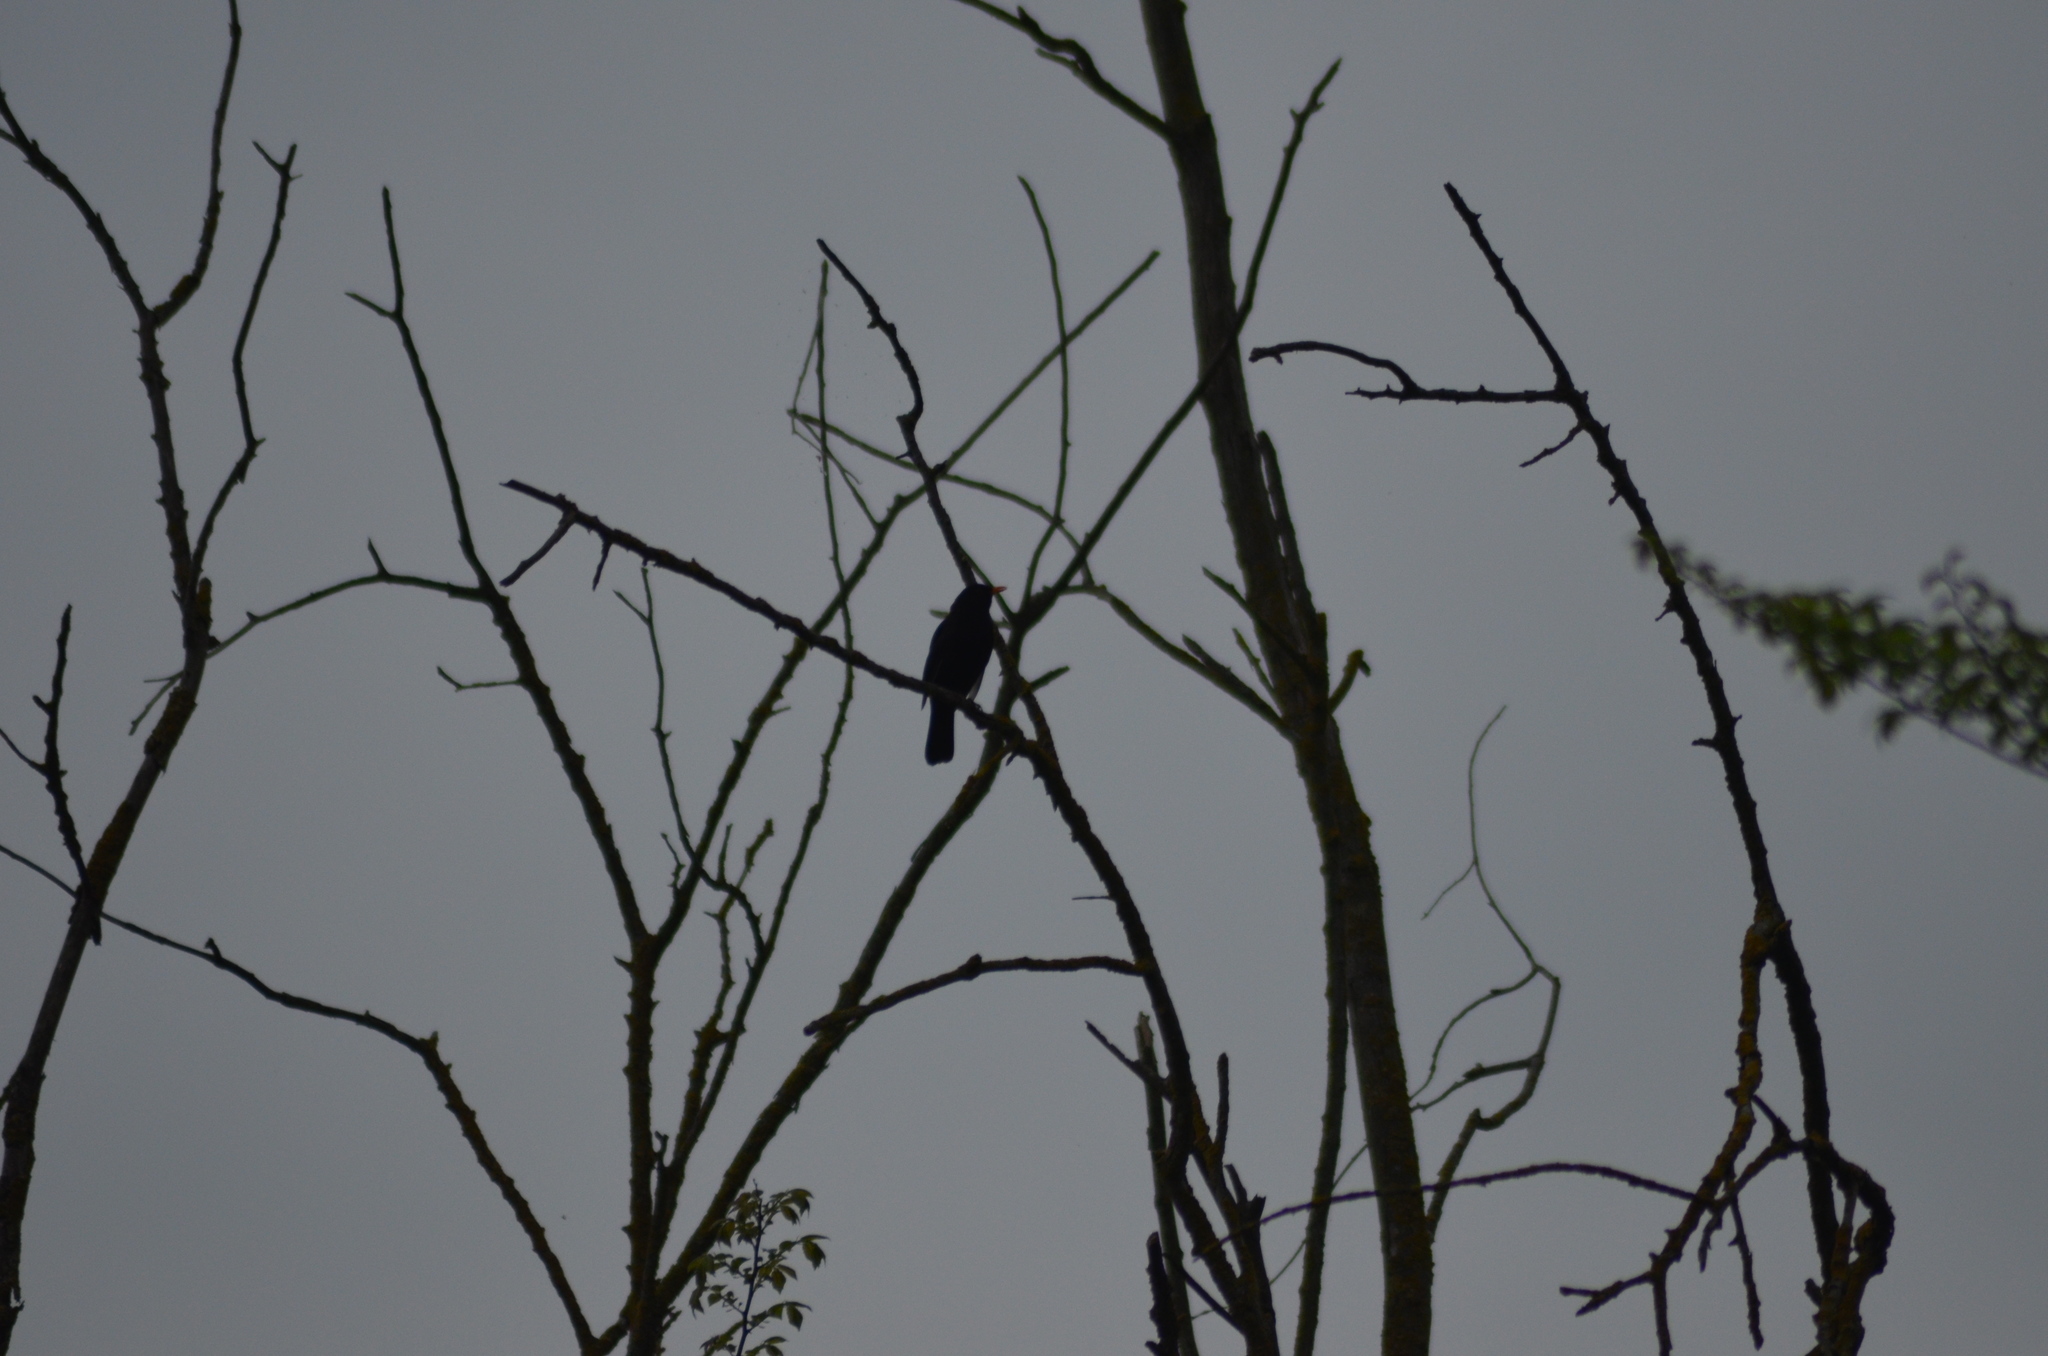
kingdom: Animalia
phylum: Chordata
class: Aves
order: Passeriformes
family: Turdidae
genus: Turdus
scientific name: Turdus merula
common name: Common blackbird
